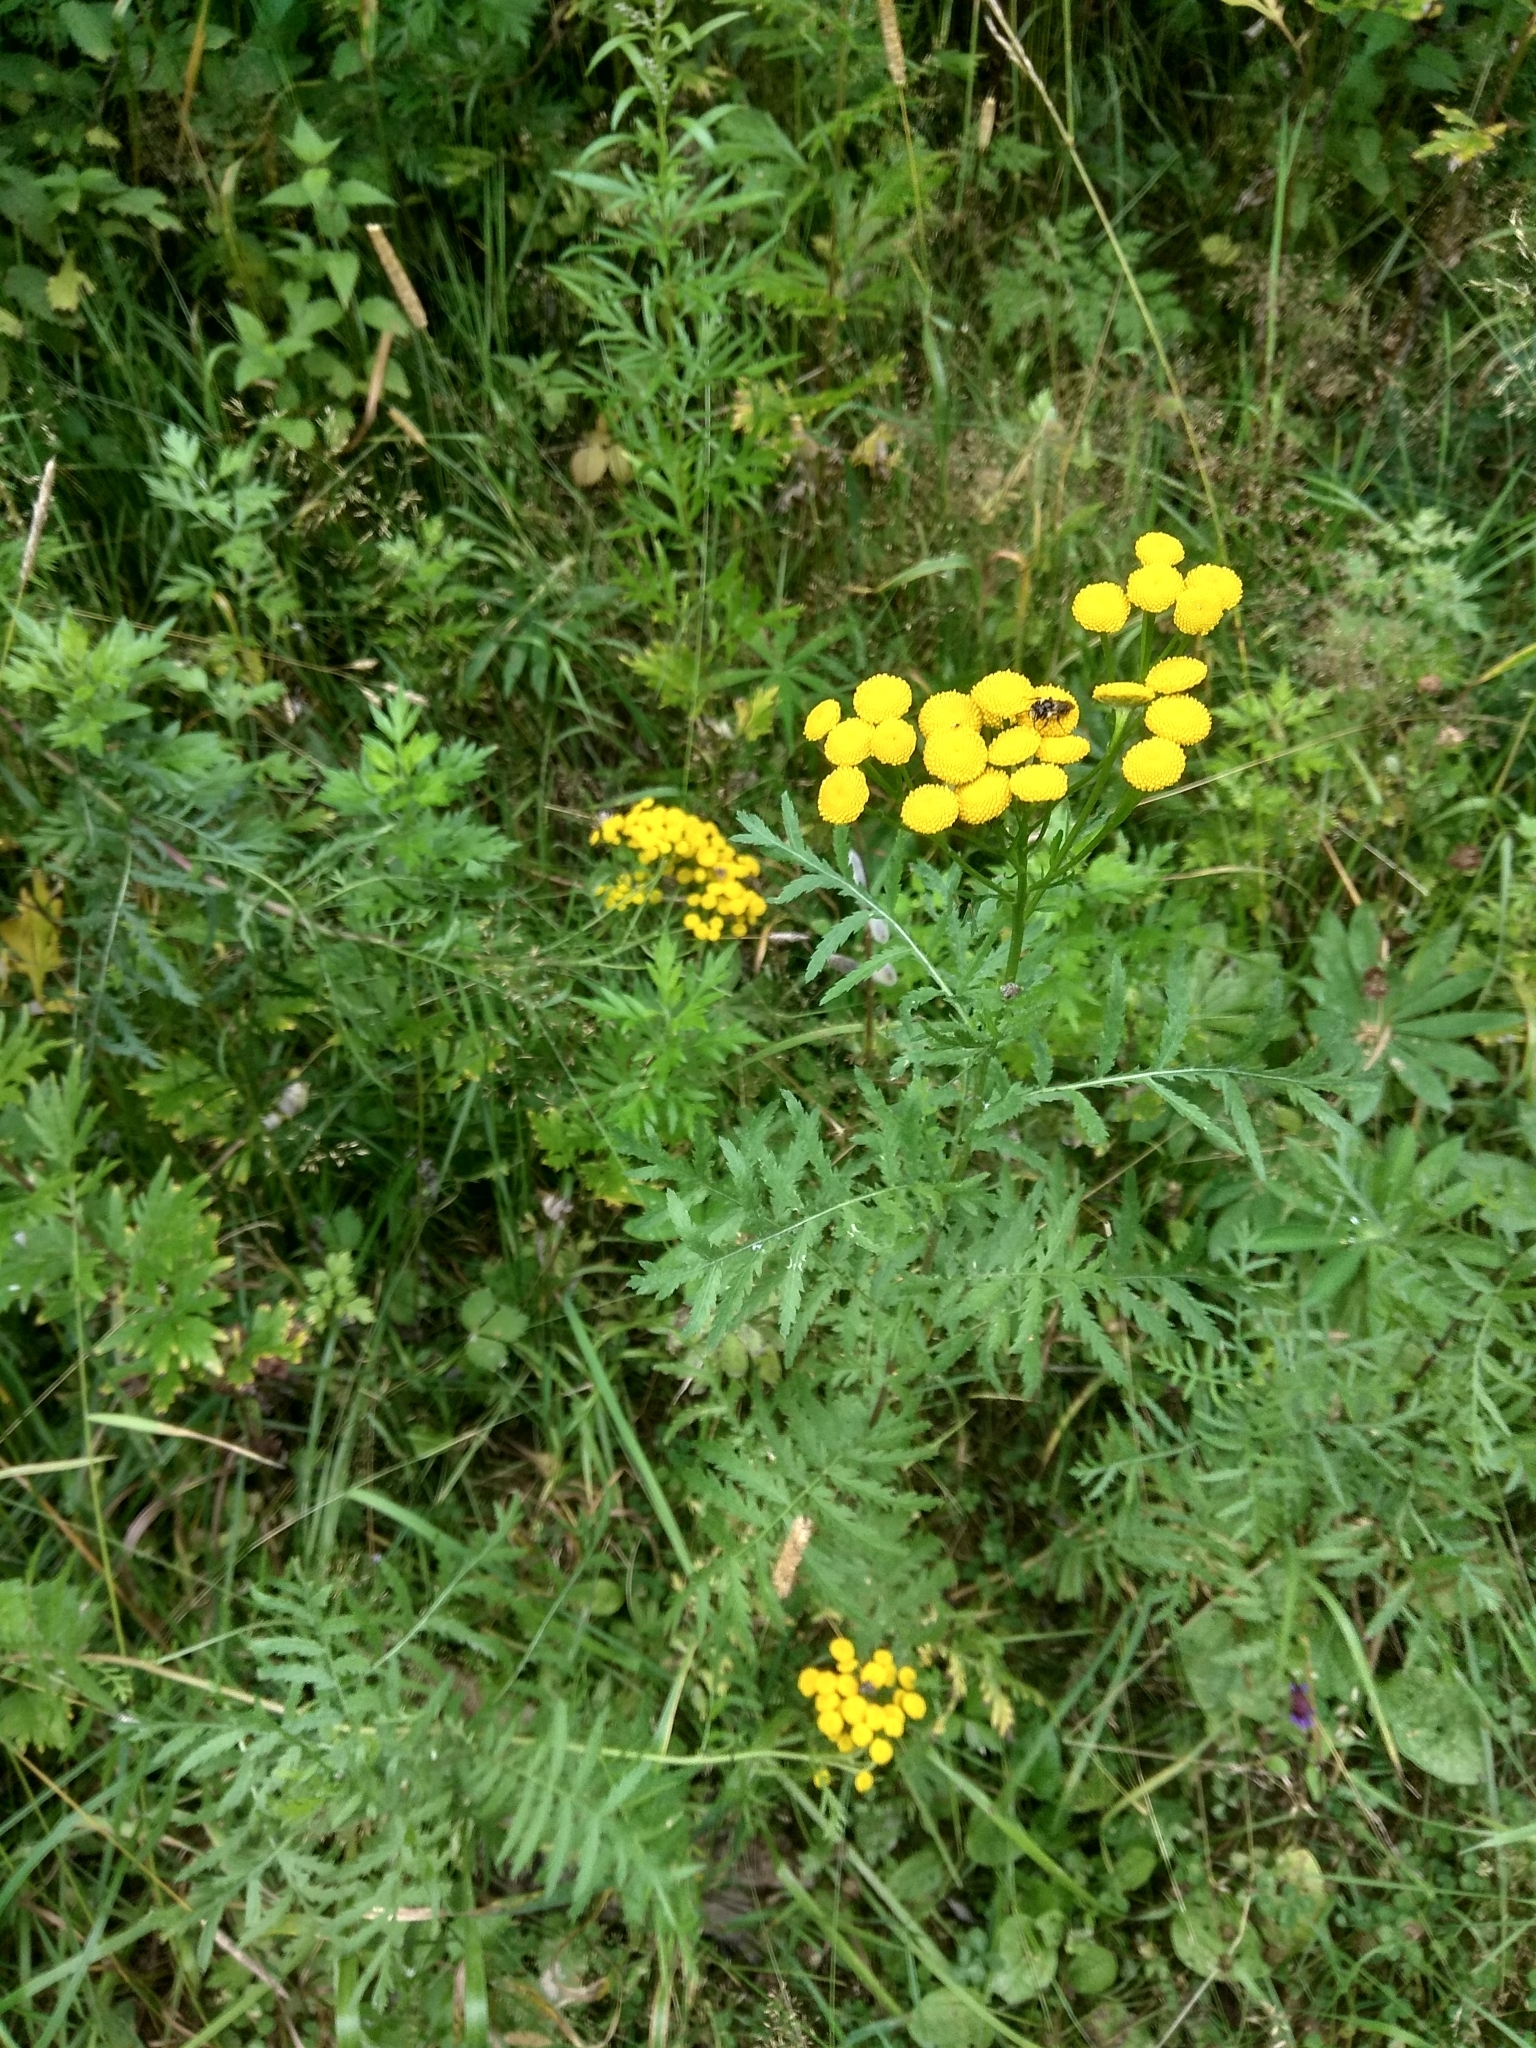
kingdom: Plantae
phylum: Tracheophyta
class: Magnoliopsida
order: Asterales
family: Asteraceae
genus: Tanacetum
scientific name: Tanacetum vulgare
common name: Common tansy
